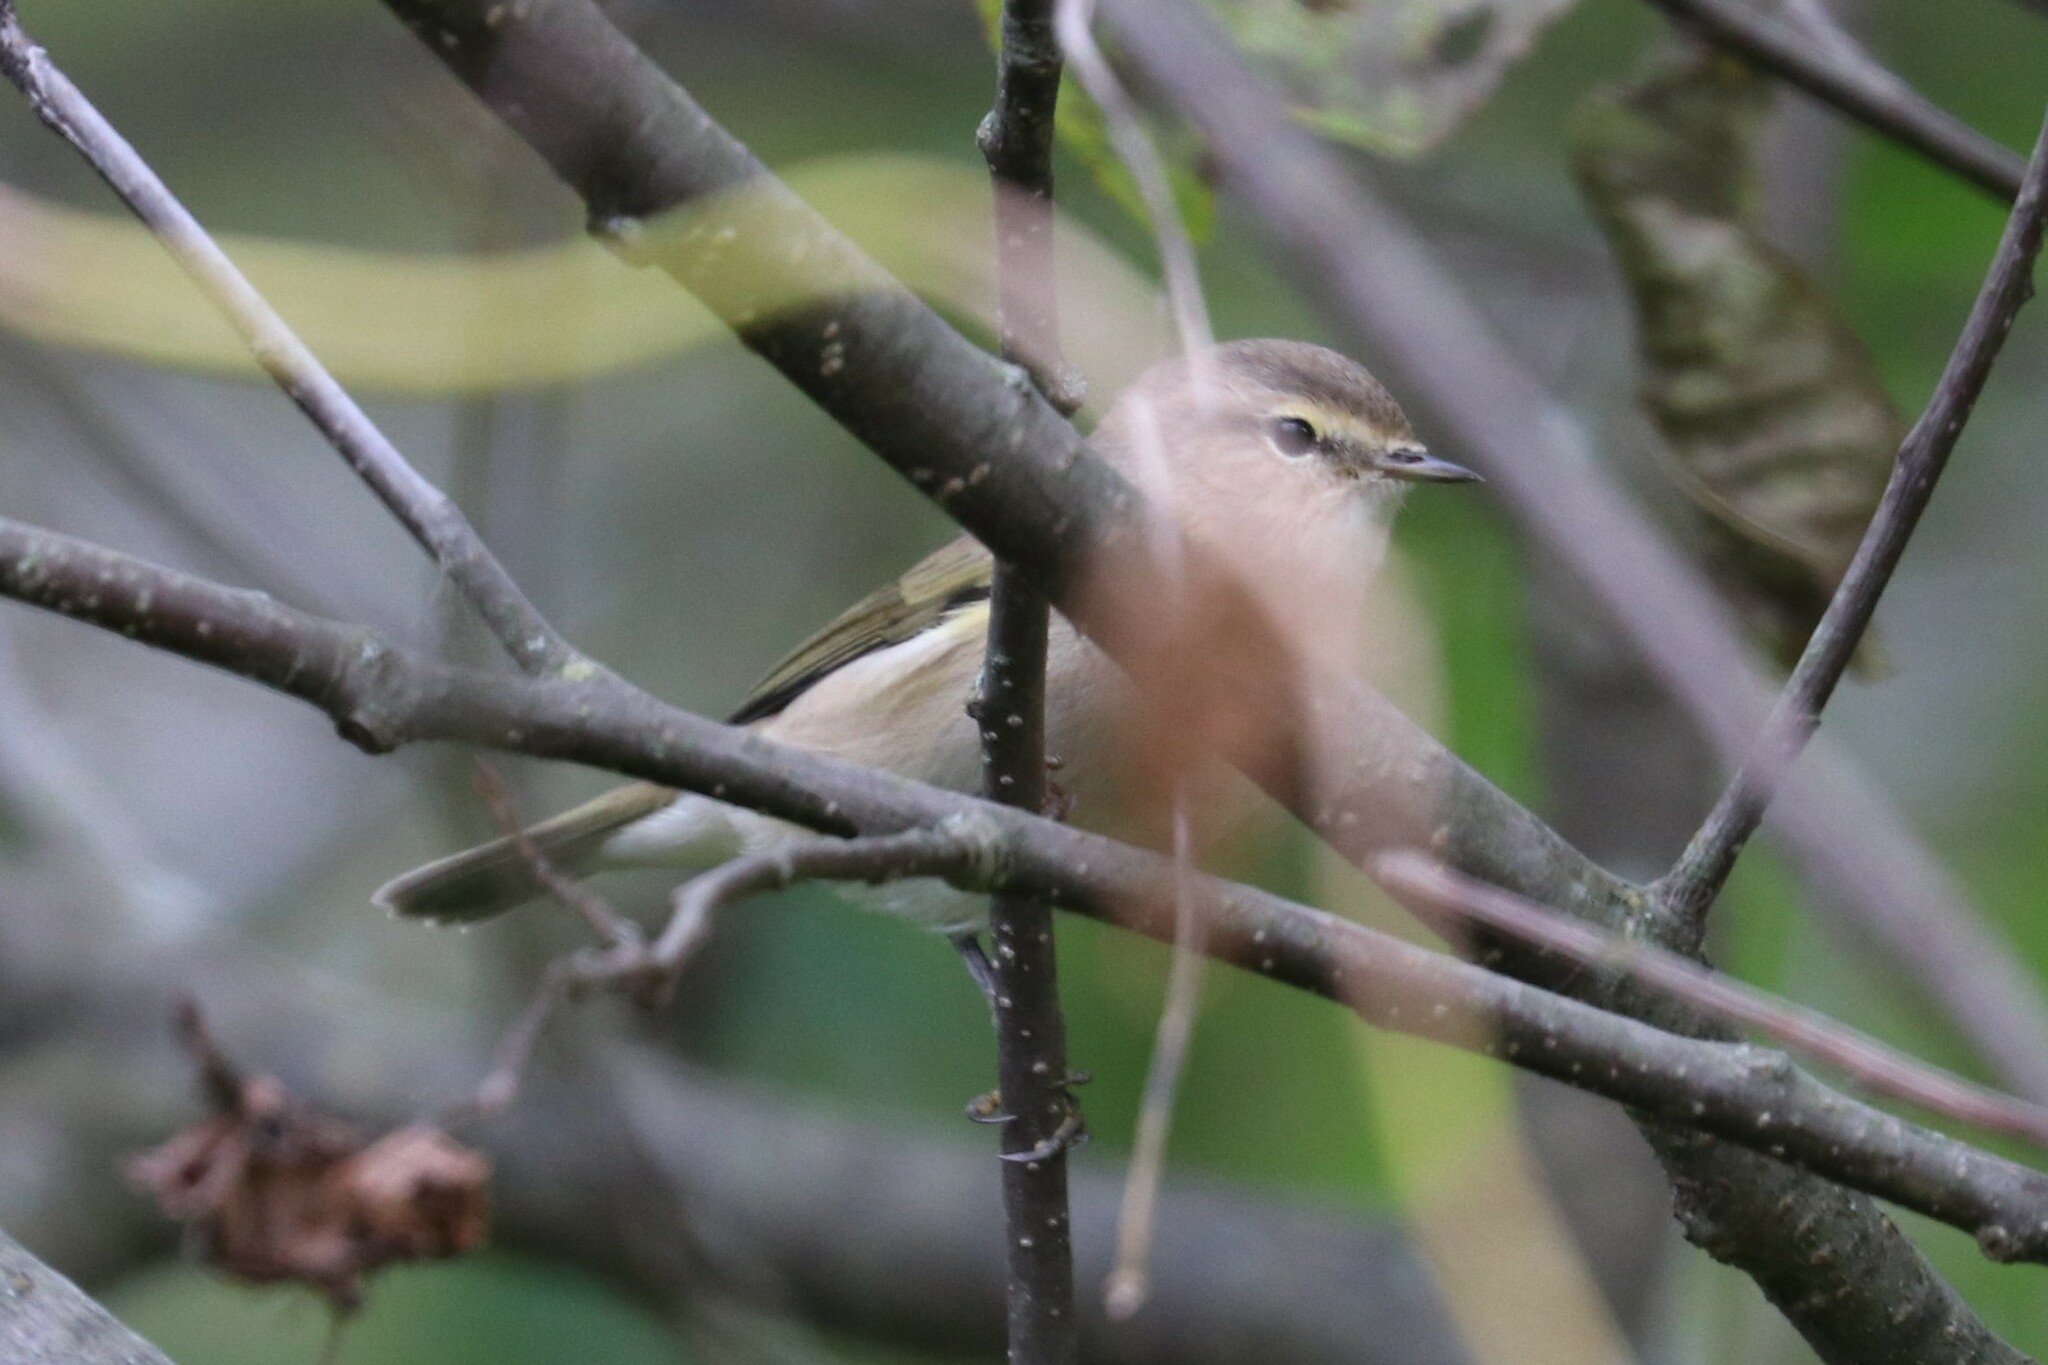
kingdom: Animalia
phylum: Chordata
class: Aves
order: Passeriformes
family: Phylloscopidae
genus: Phylloscopus
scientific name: Phylloscopus collybita
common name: Common chiffchaff
